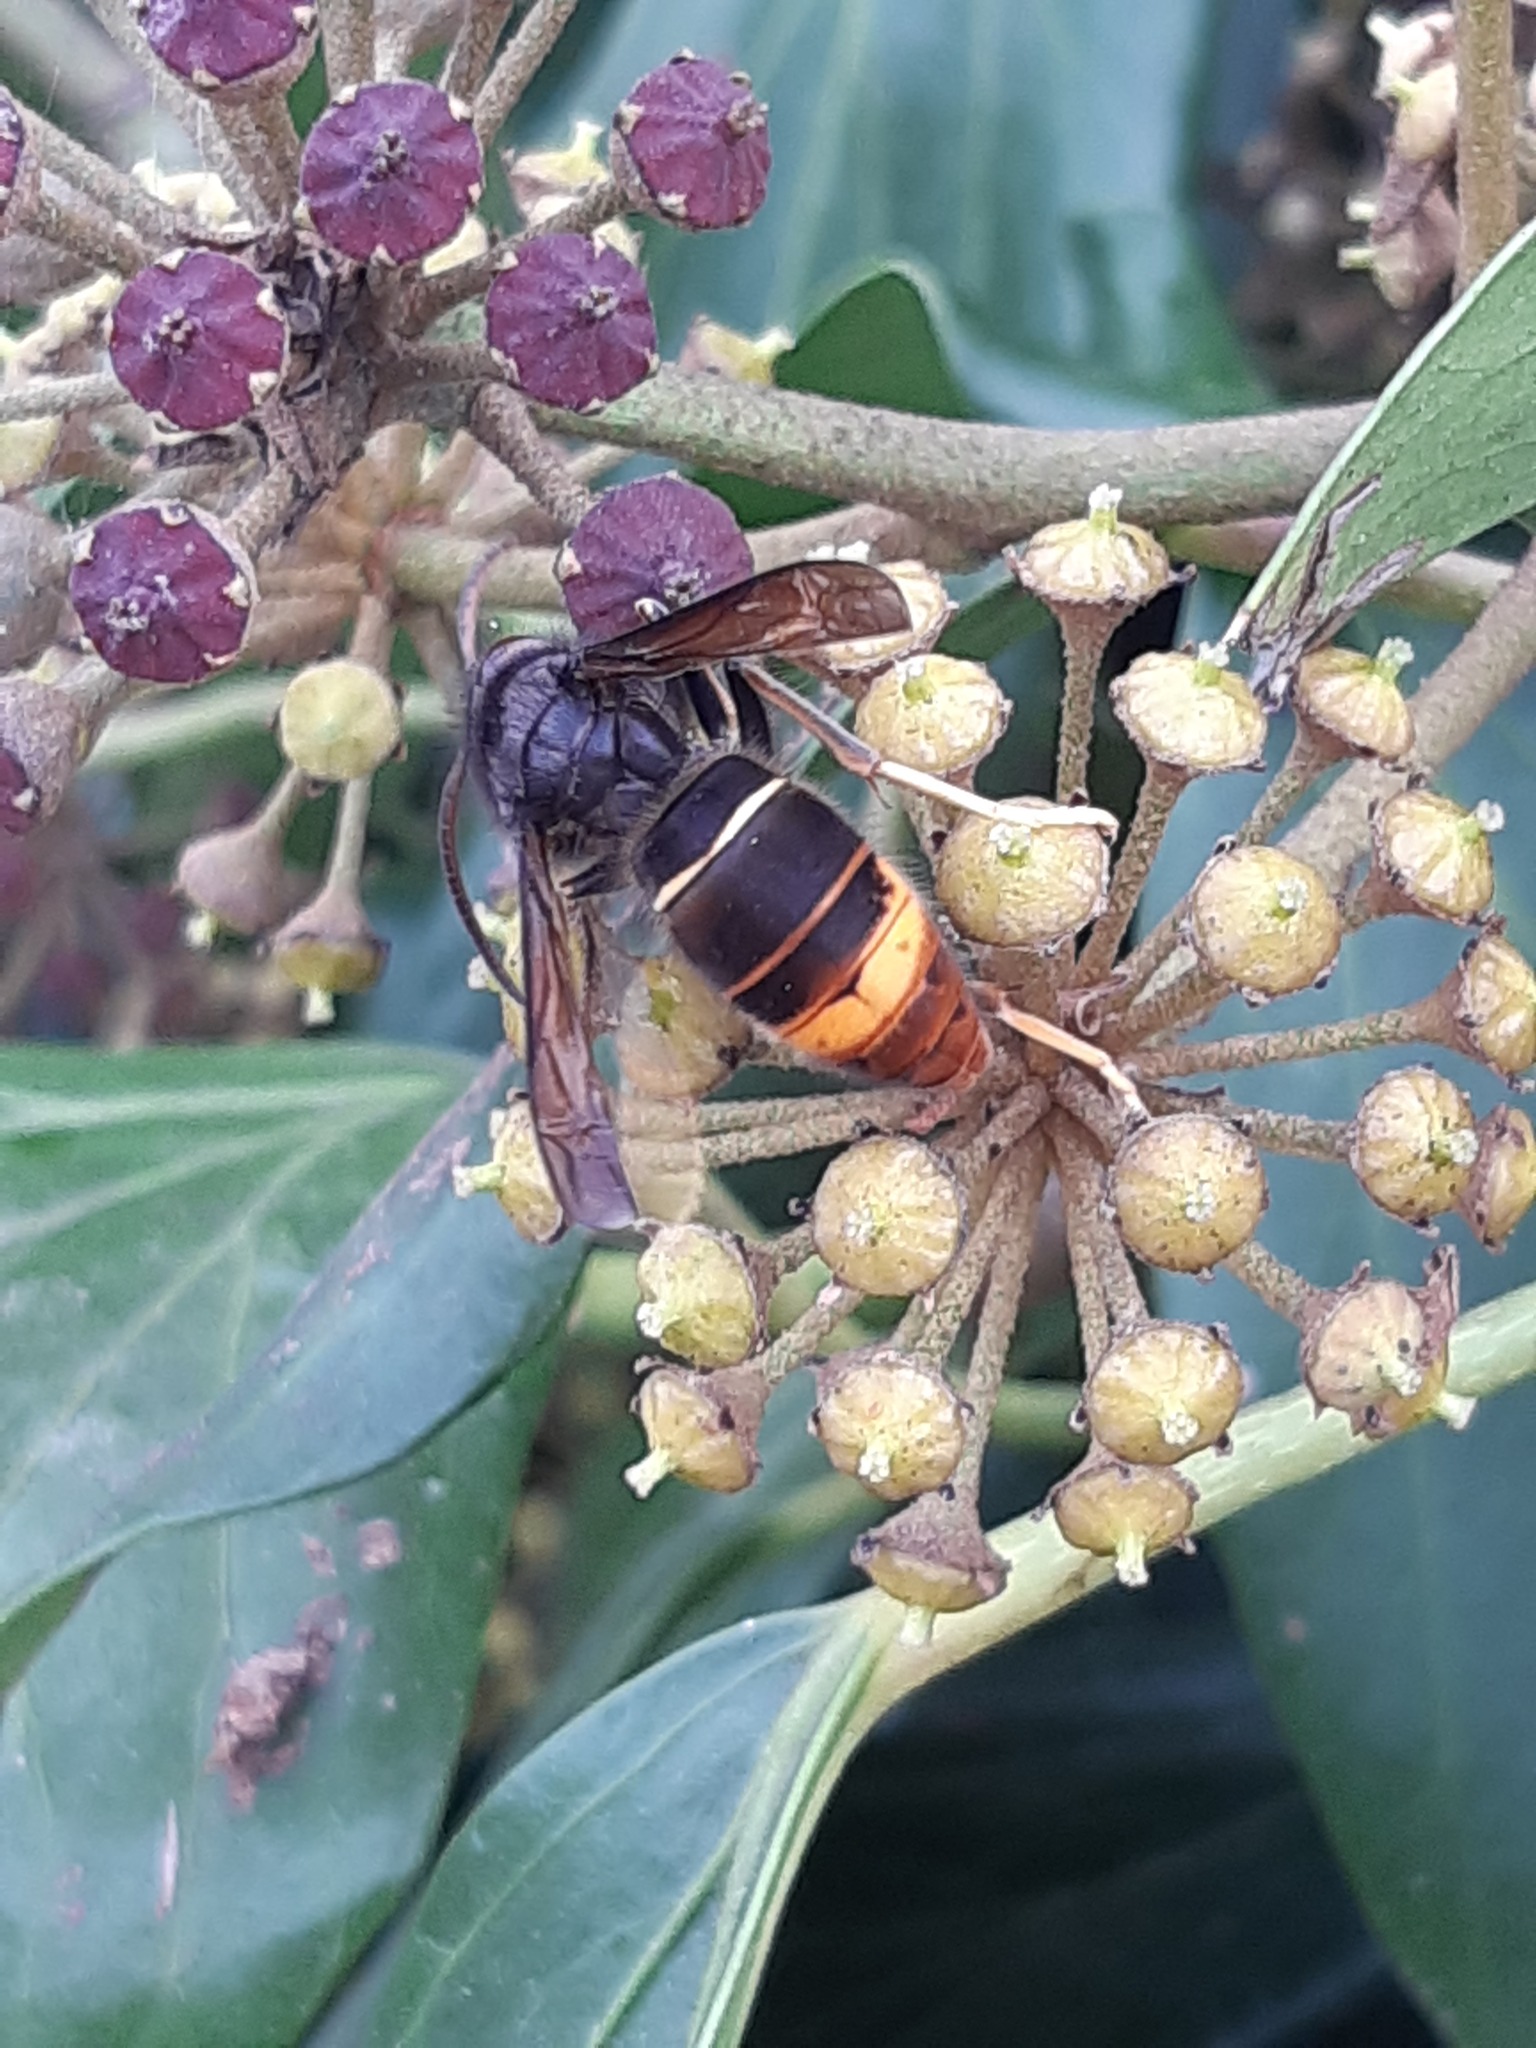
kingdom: Animalia
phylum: Arthropoda
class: Insecta
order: Hymenoptera
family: Vespidae
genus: Vespa
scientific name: Vespa velutina
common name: Asian hornet
